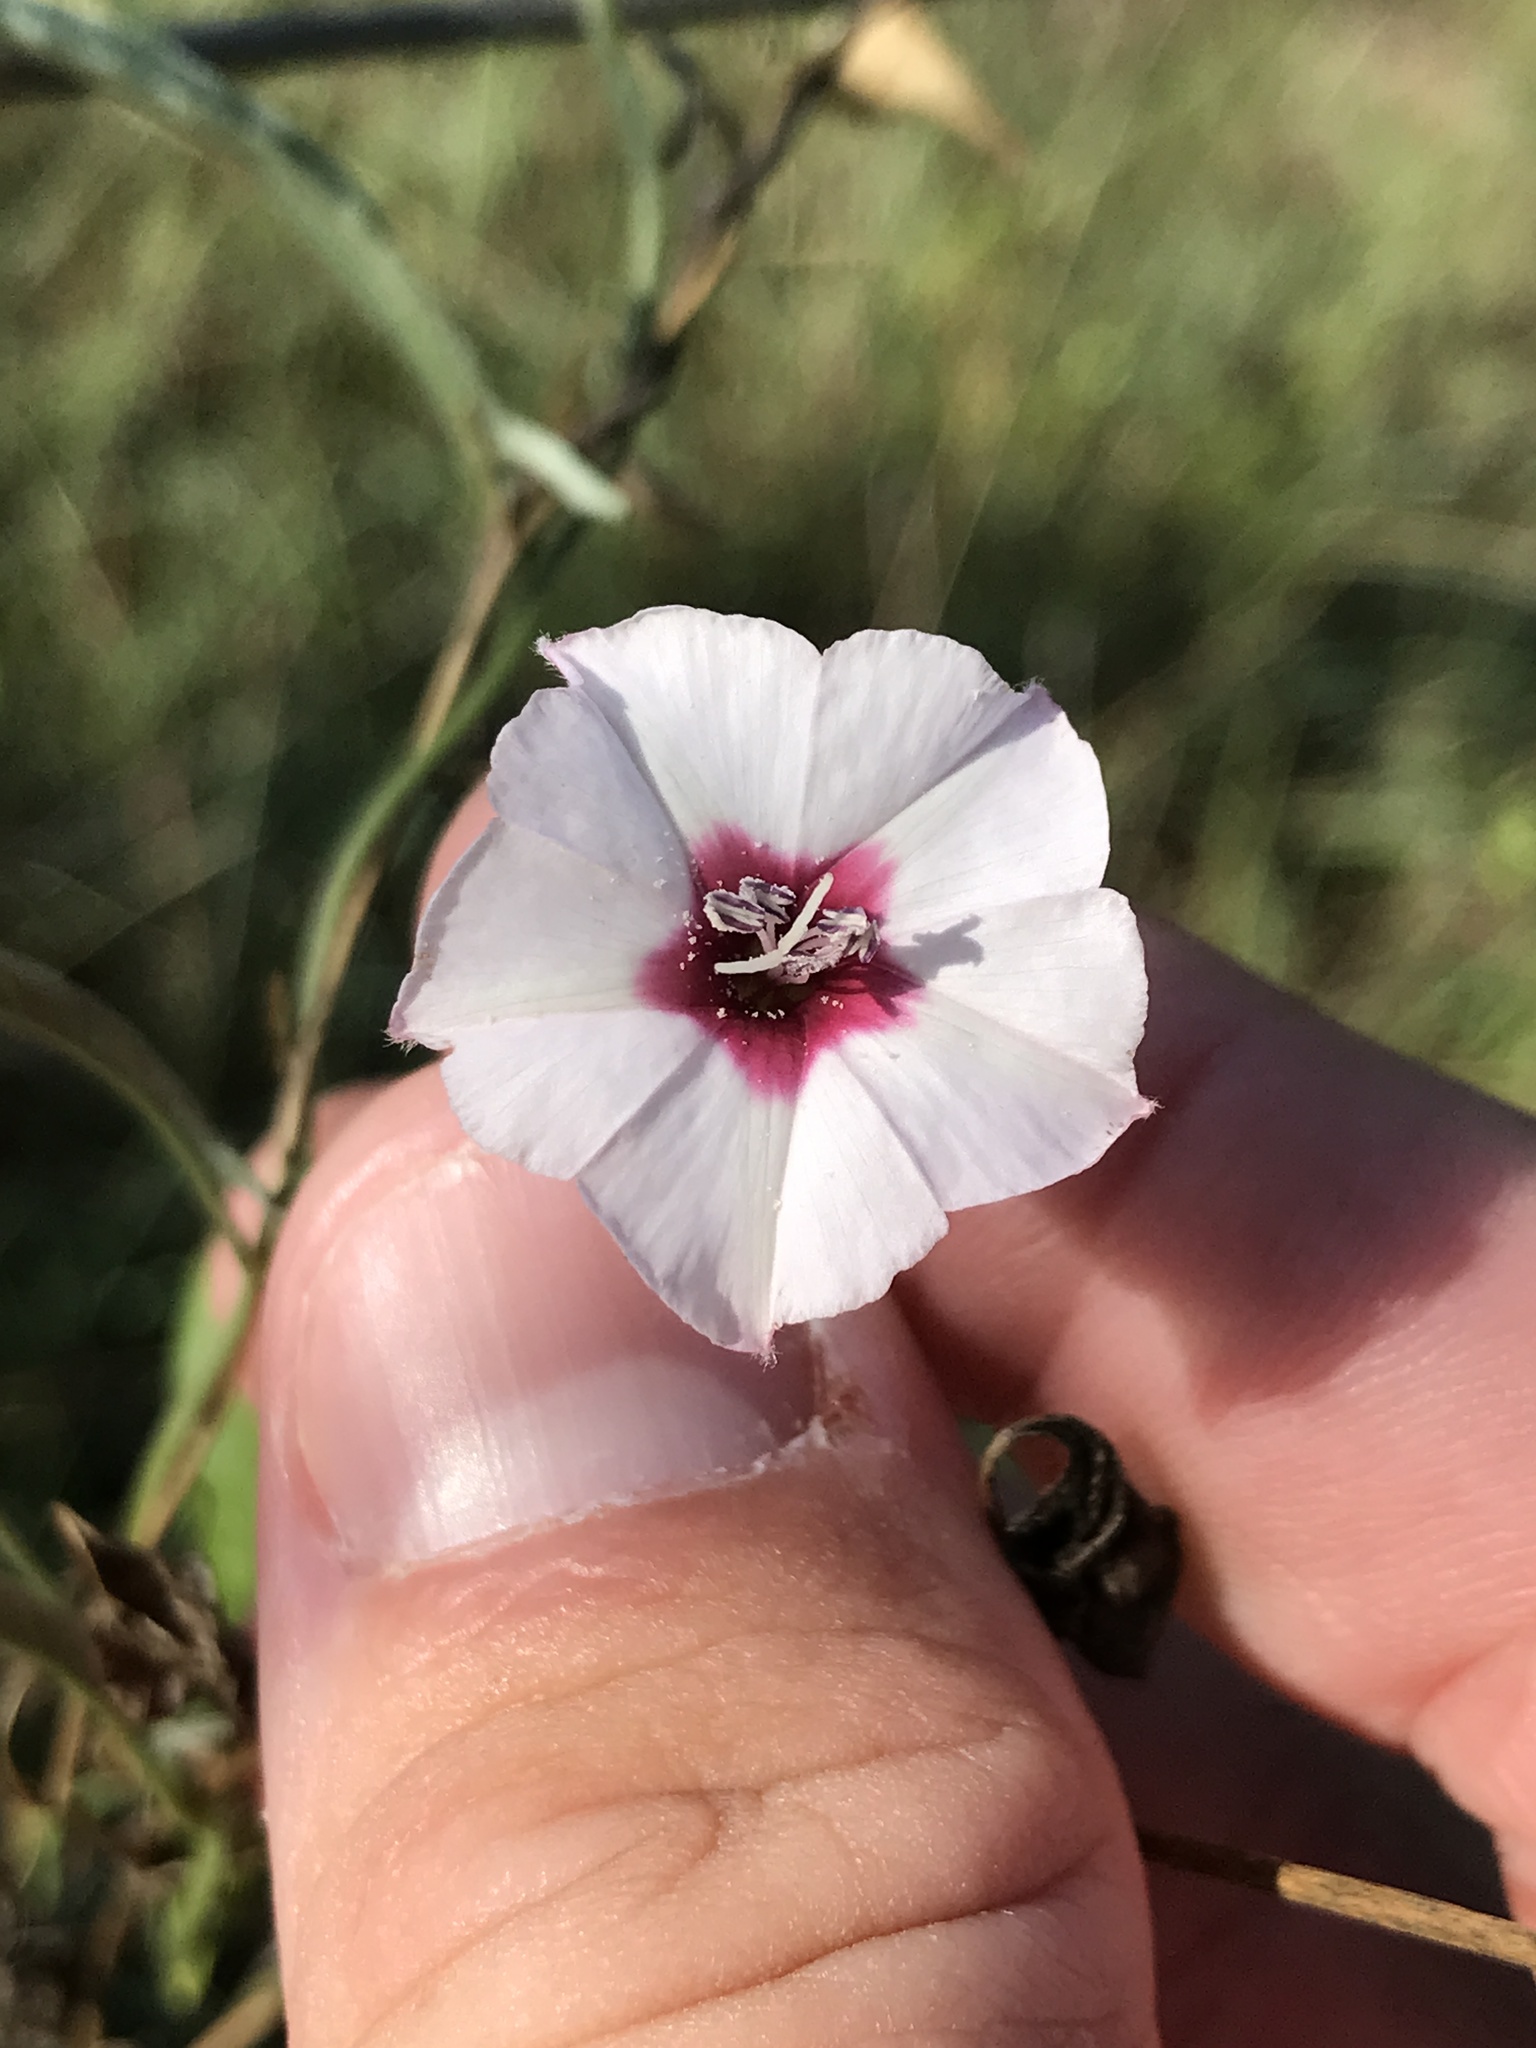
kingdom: Plantae
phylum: Tracheophyta
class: Magnoliopsida
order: Solanales
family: Convolvulaceae
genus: Convolvulus
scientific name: Convolvulus equitans
